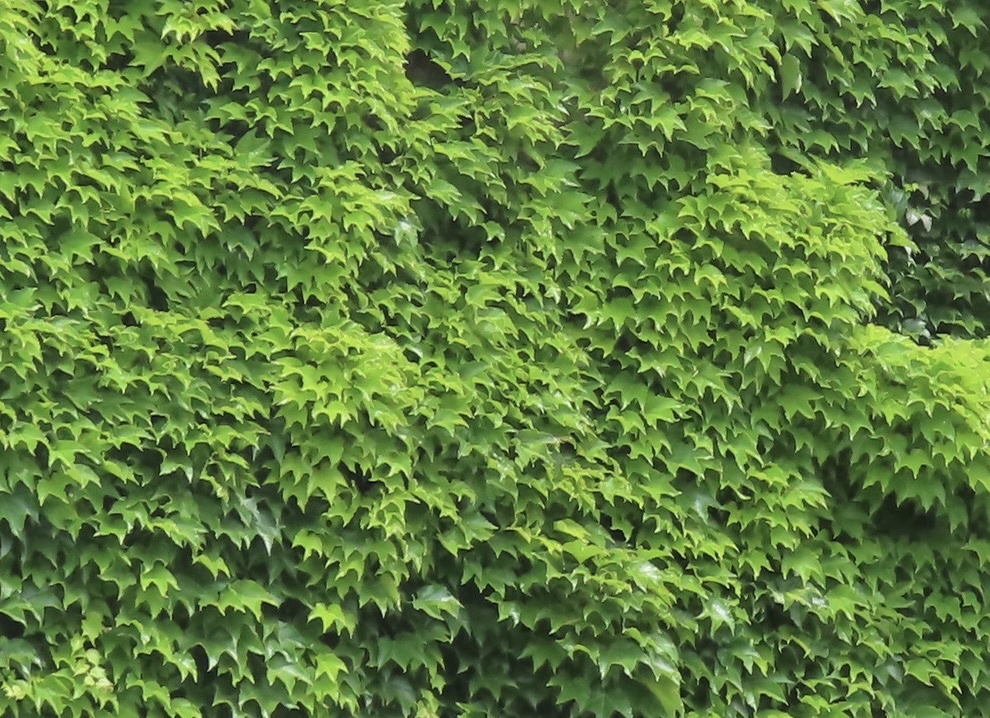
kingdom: Plantae
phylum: Tracheophyta
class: Magnoliopsida
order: Vitales
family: Vitaceae
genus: Parthenocissus
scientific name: Parthenocissus tricuspidata
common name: Boston ivy
